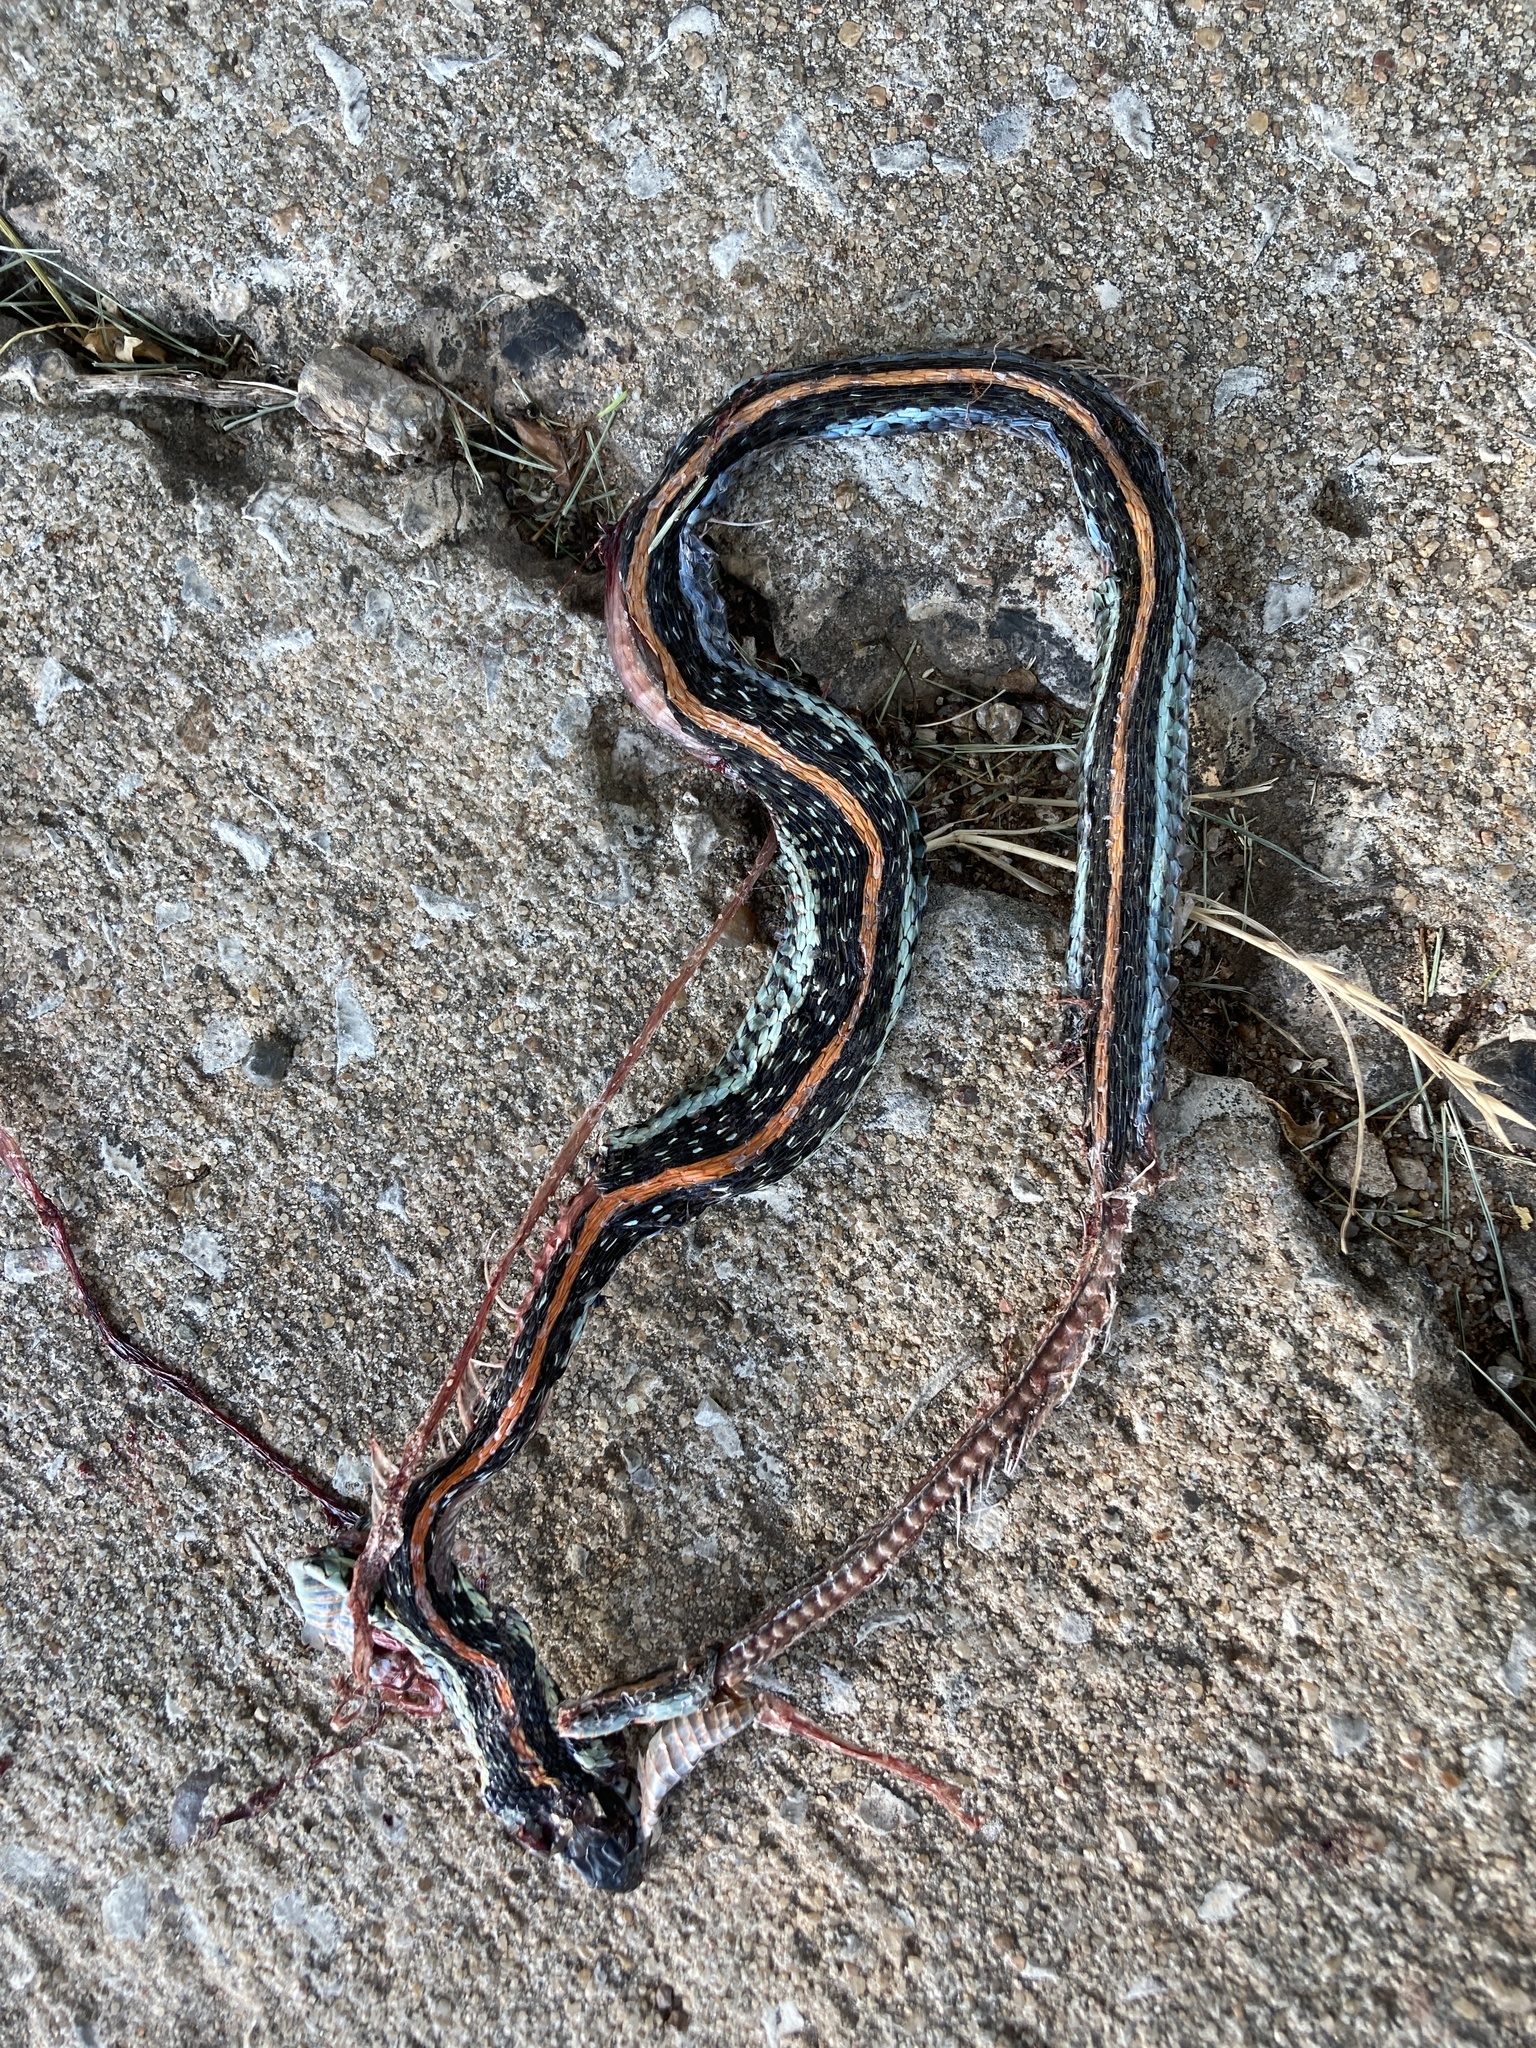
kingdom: Animalia
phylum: Chordata
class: Squamata
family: Colubridae
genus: Thamnophis
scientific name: Thamnophis sirtalis
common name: Common garter snake
